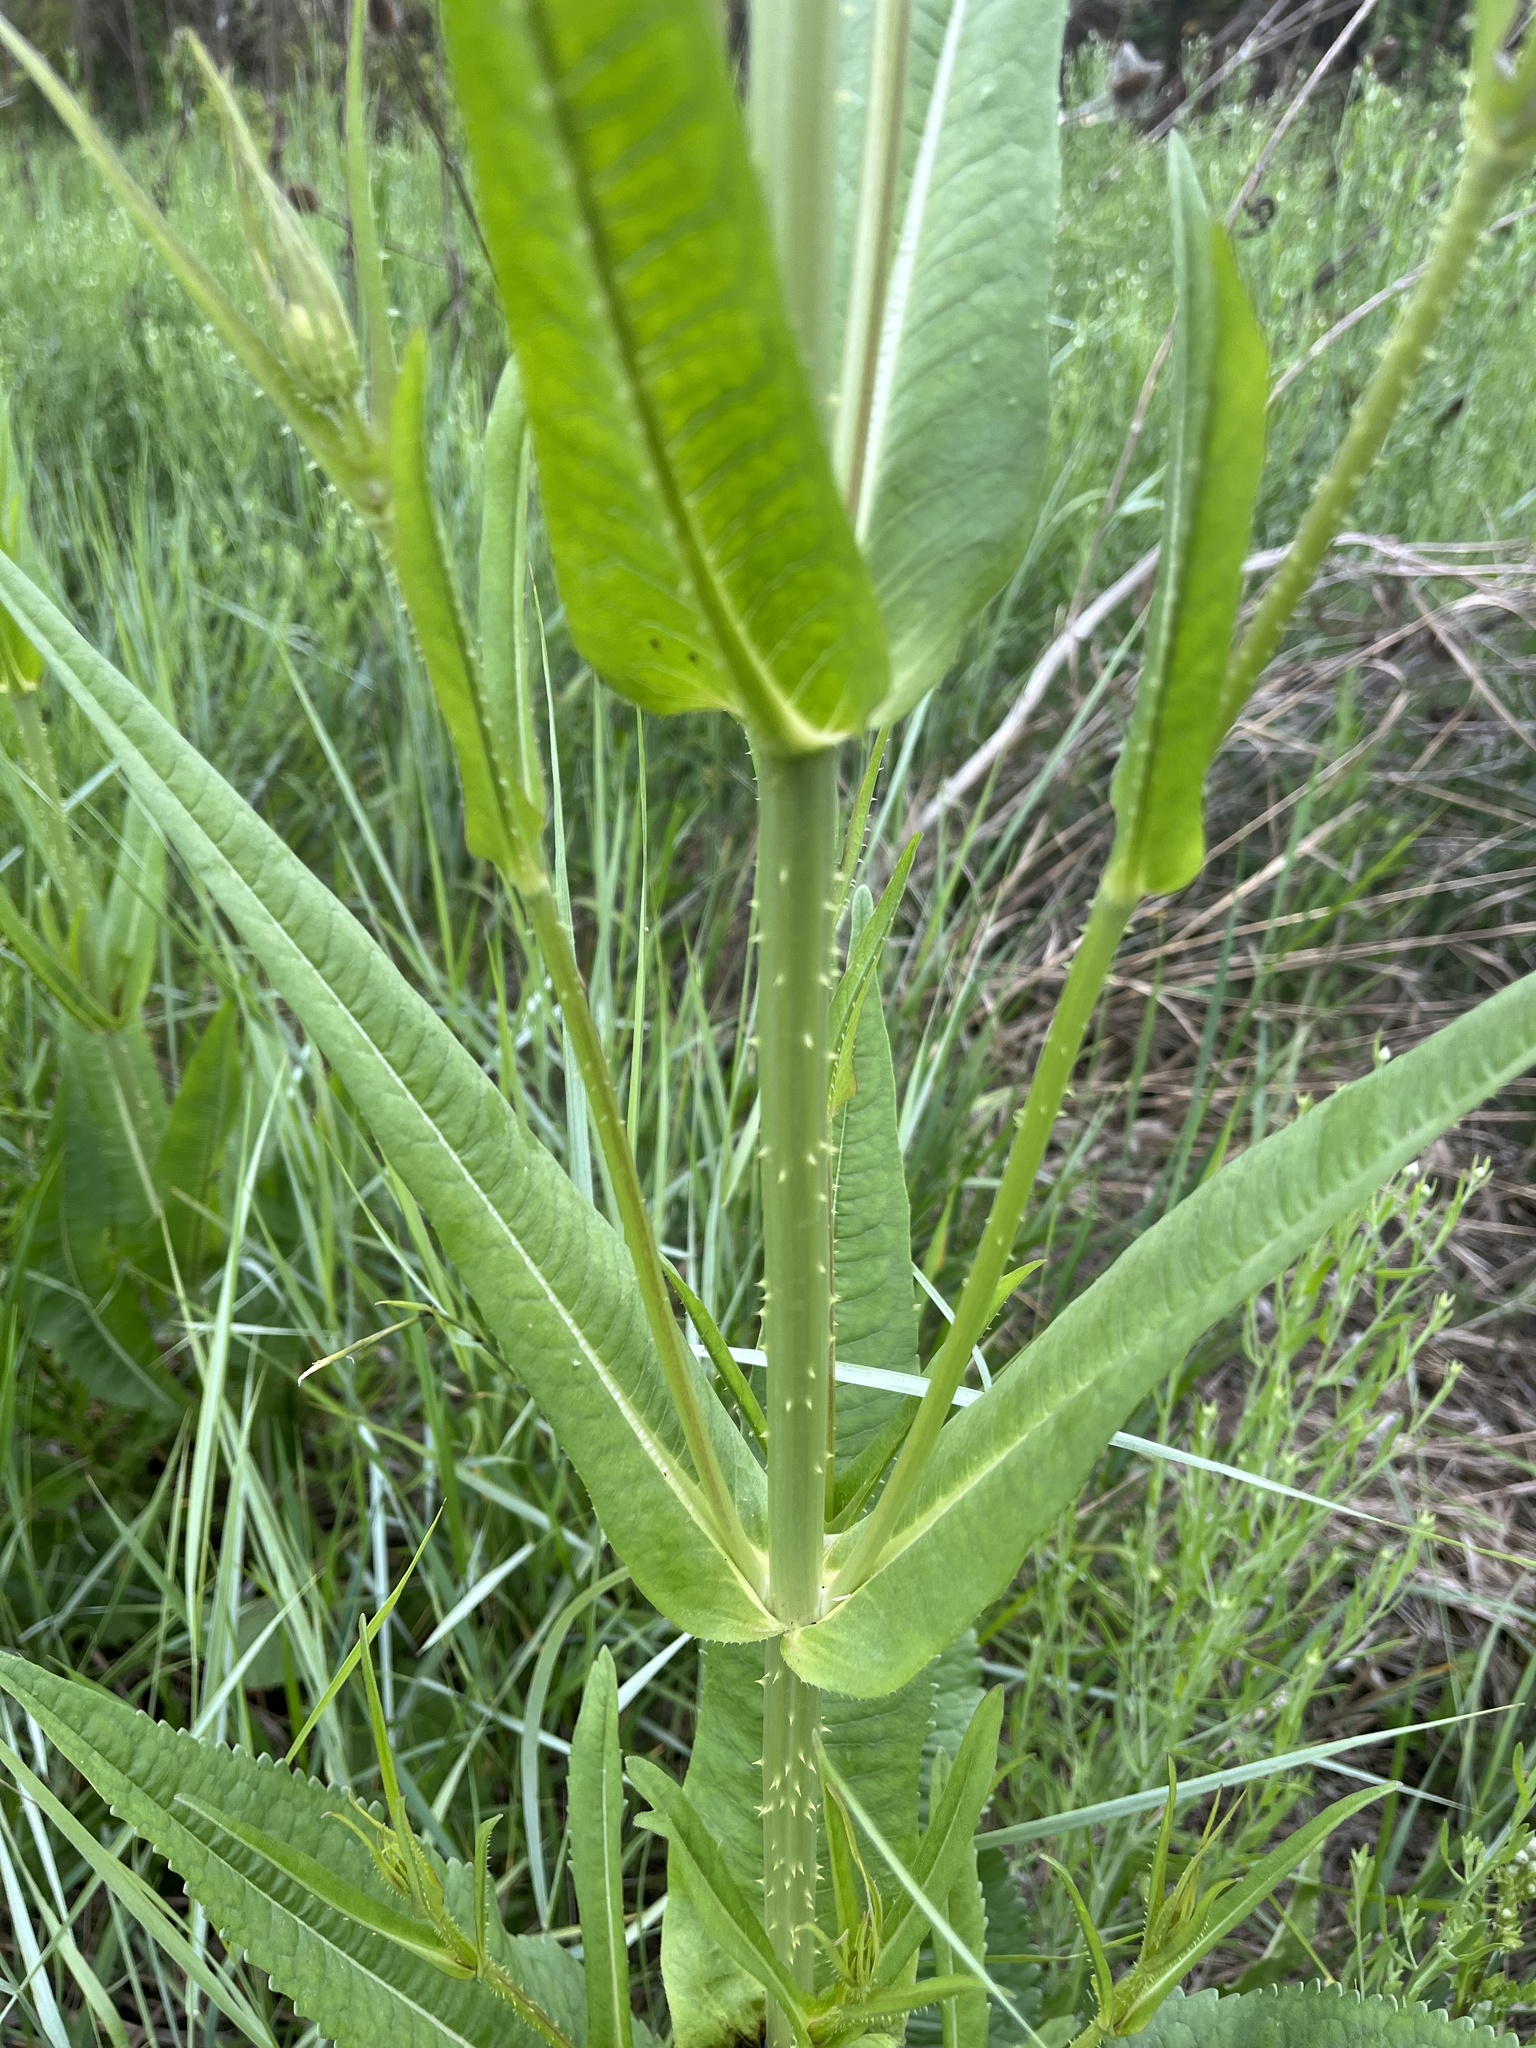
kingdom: Plantae
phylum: Tracheophyta
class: Magnoliopsida
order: Dipsacales
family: Caprifoliaceae
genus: Dipsacus
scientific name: Dipsacus fullonum
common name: Teasel
